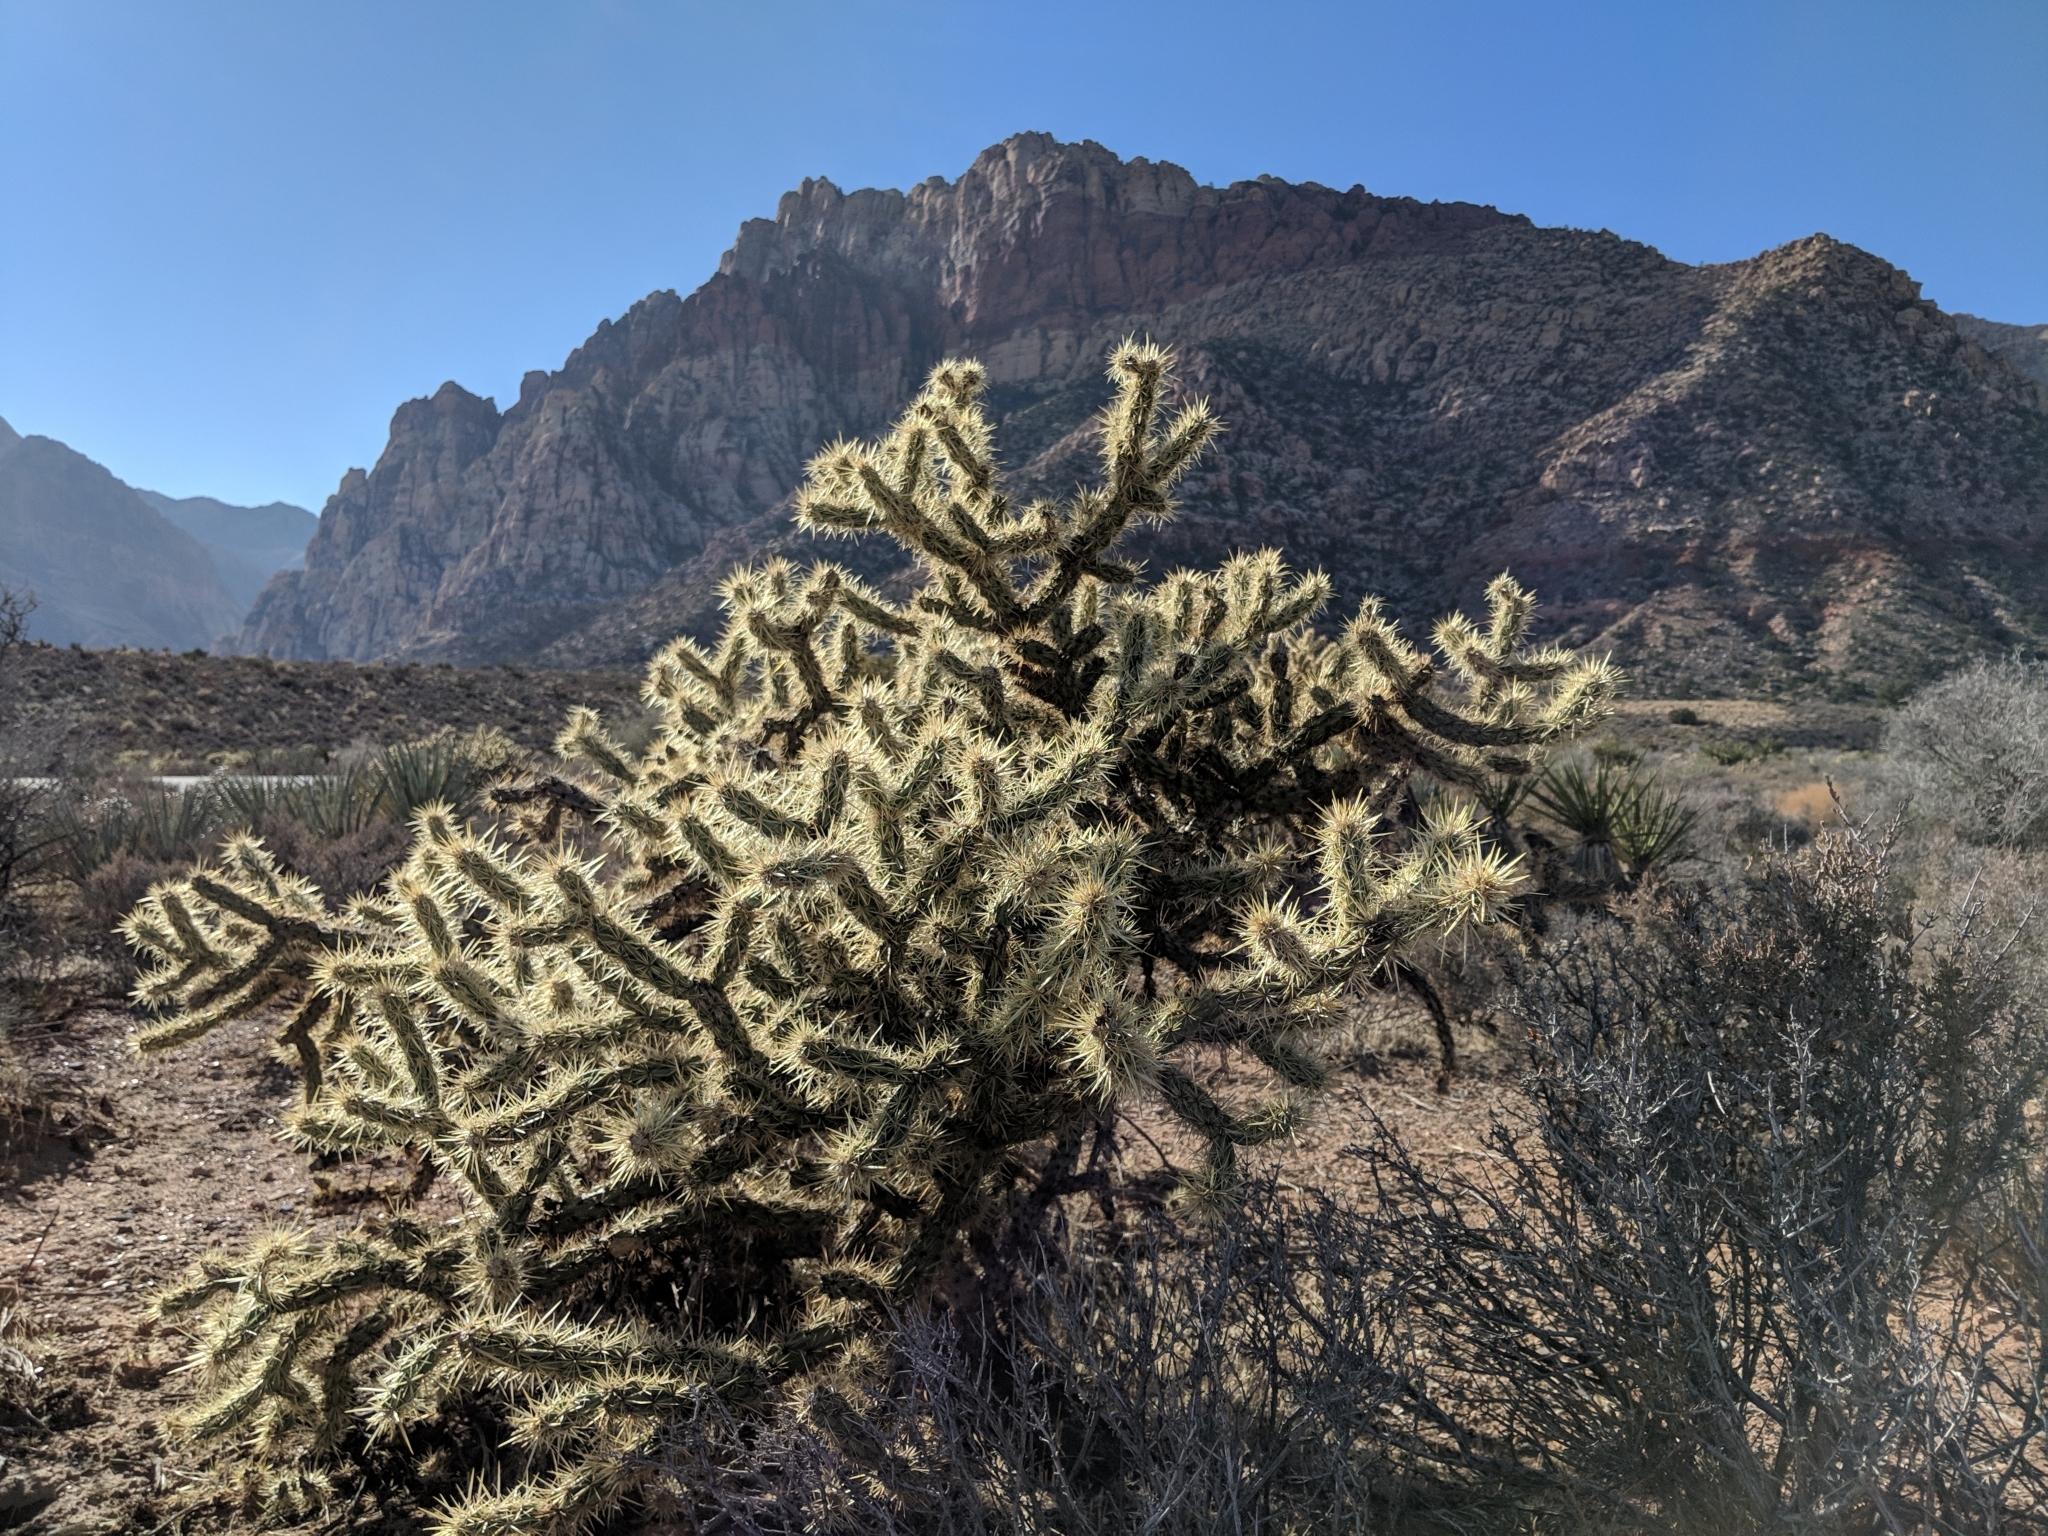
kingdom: Plantae
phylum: Tracheophyta
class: Magnoliopsida
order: Caryophyllales
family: Cactaceae
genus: Cylindropuntia
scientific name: Cylindropuntia acanthocarpa
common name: Buckhorn cholla
